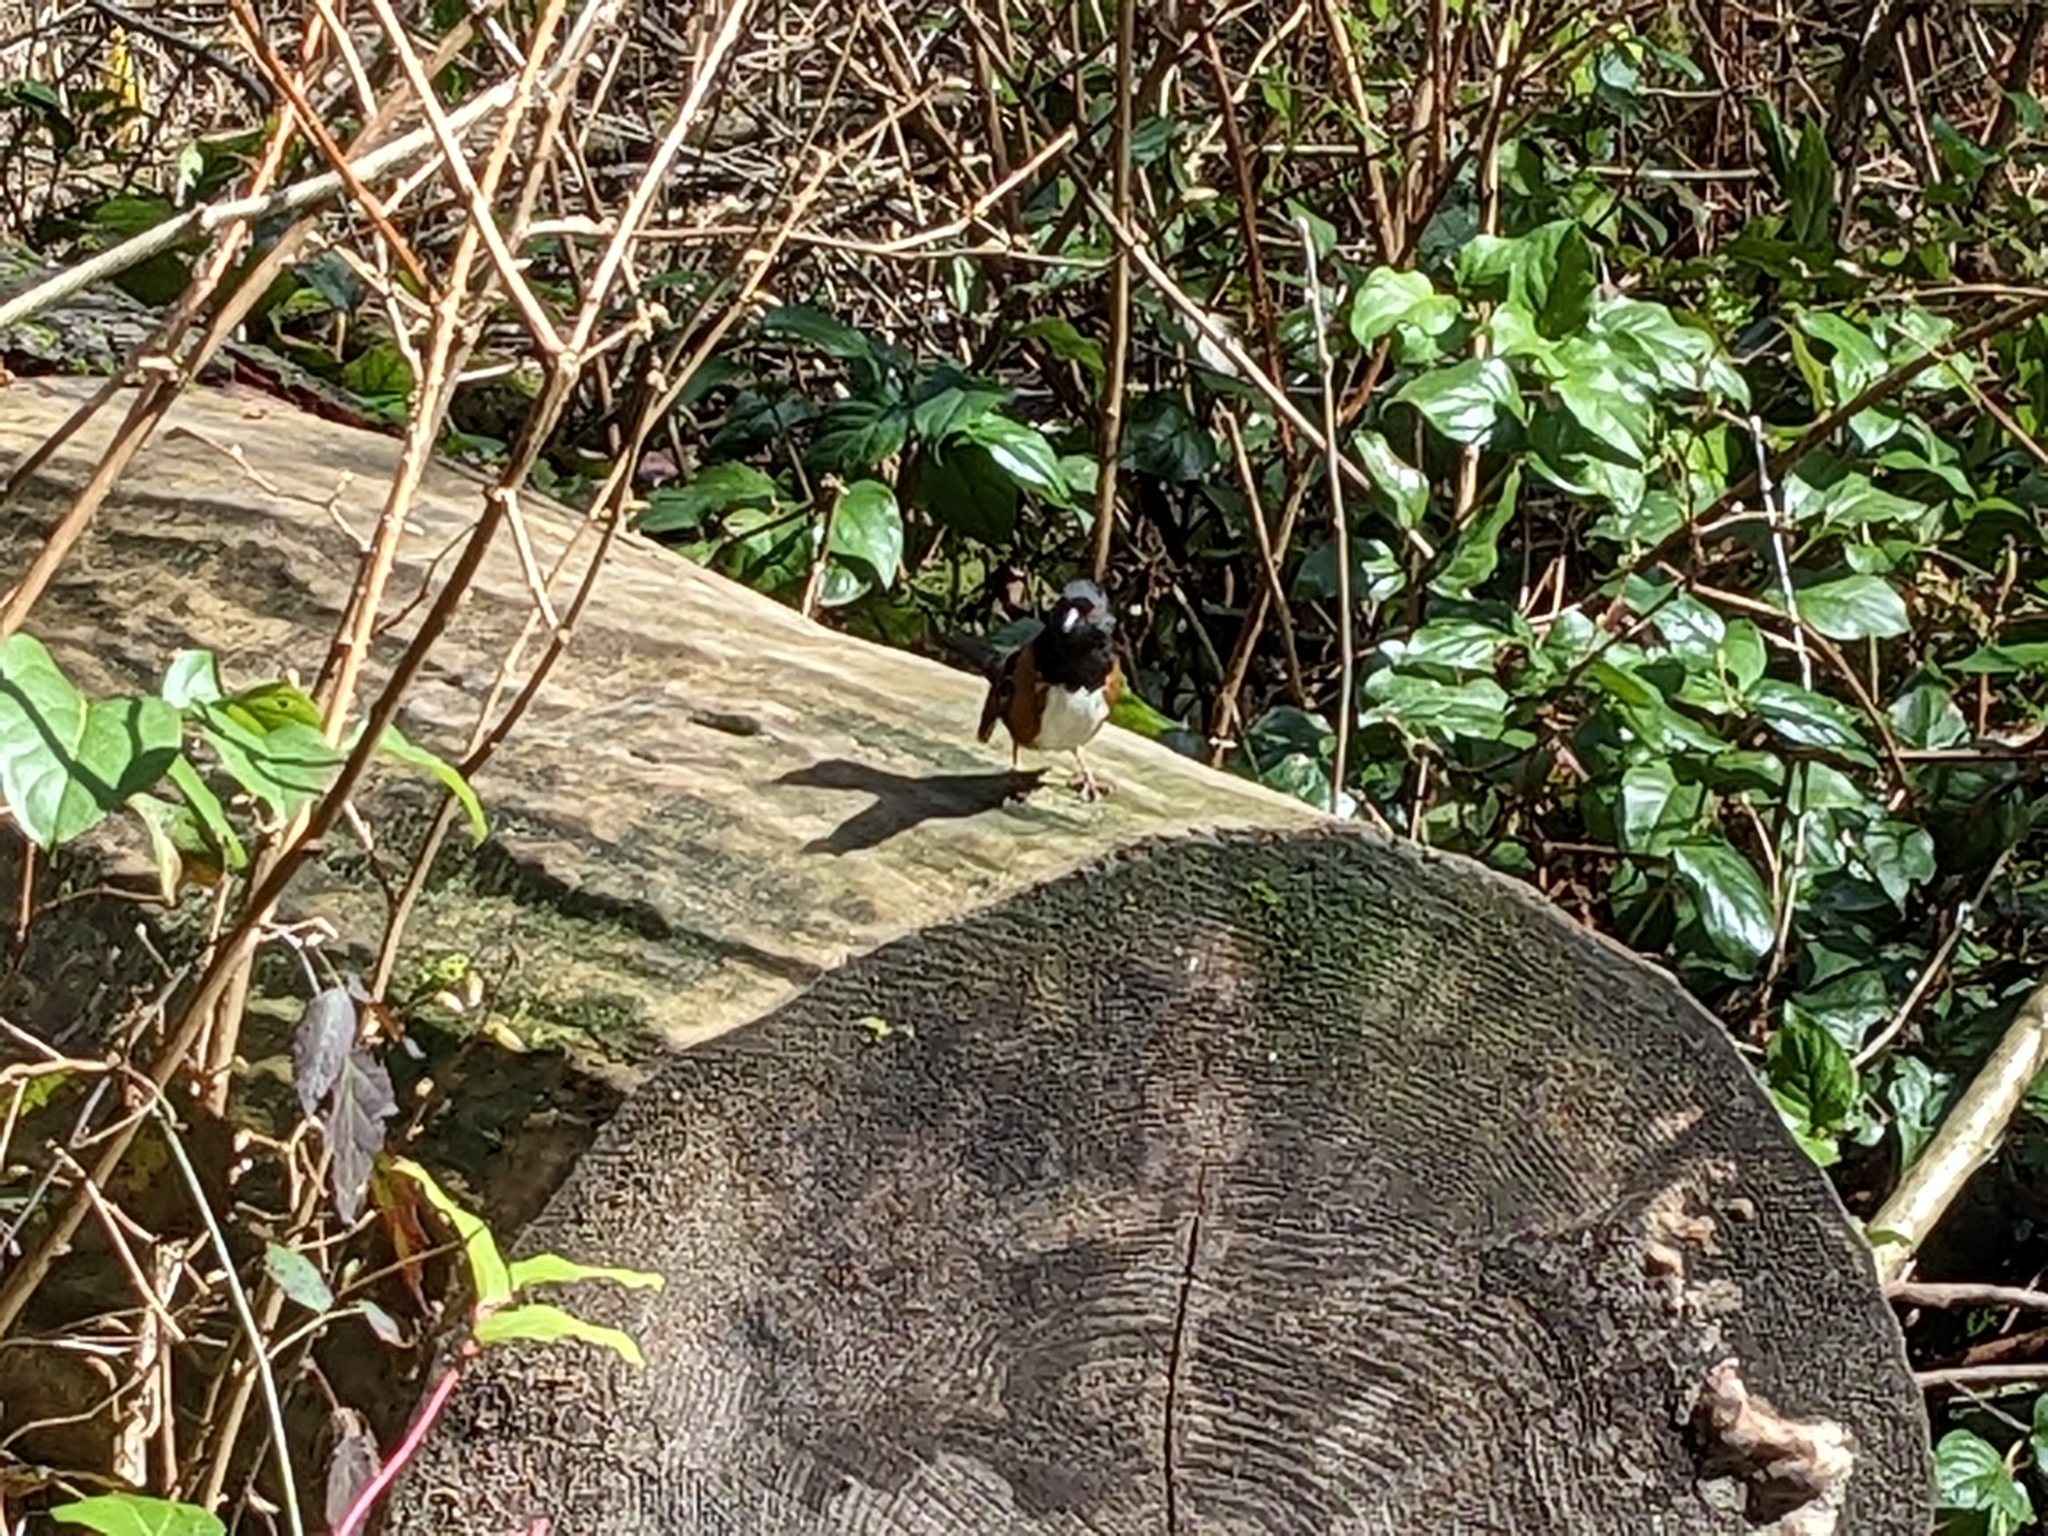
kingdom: Animalia
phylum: Chordata
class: Aves
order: Passeriformes
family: Passerellidae
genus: Pipilo
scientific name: Pipilo maculatus
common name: Spotted towhee
